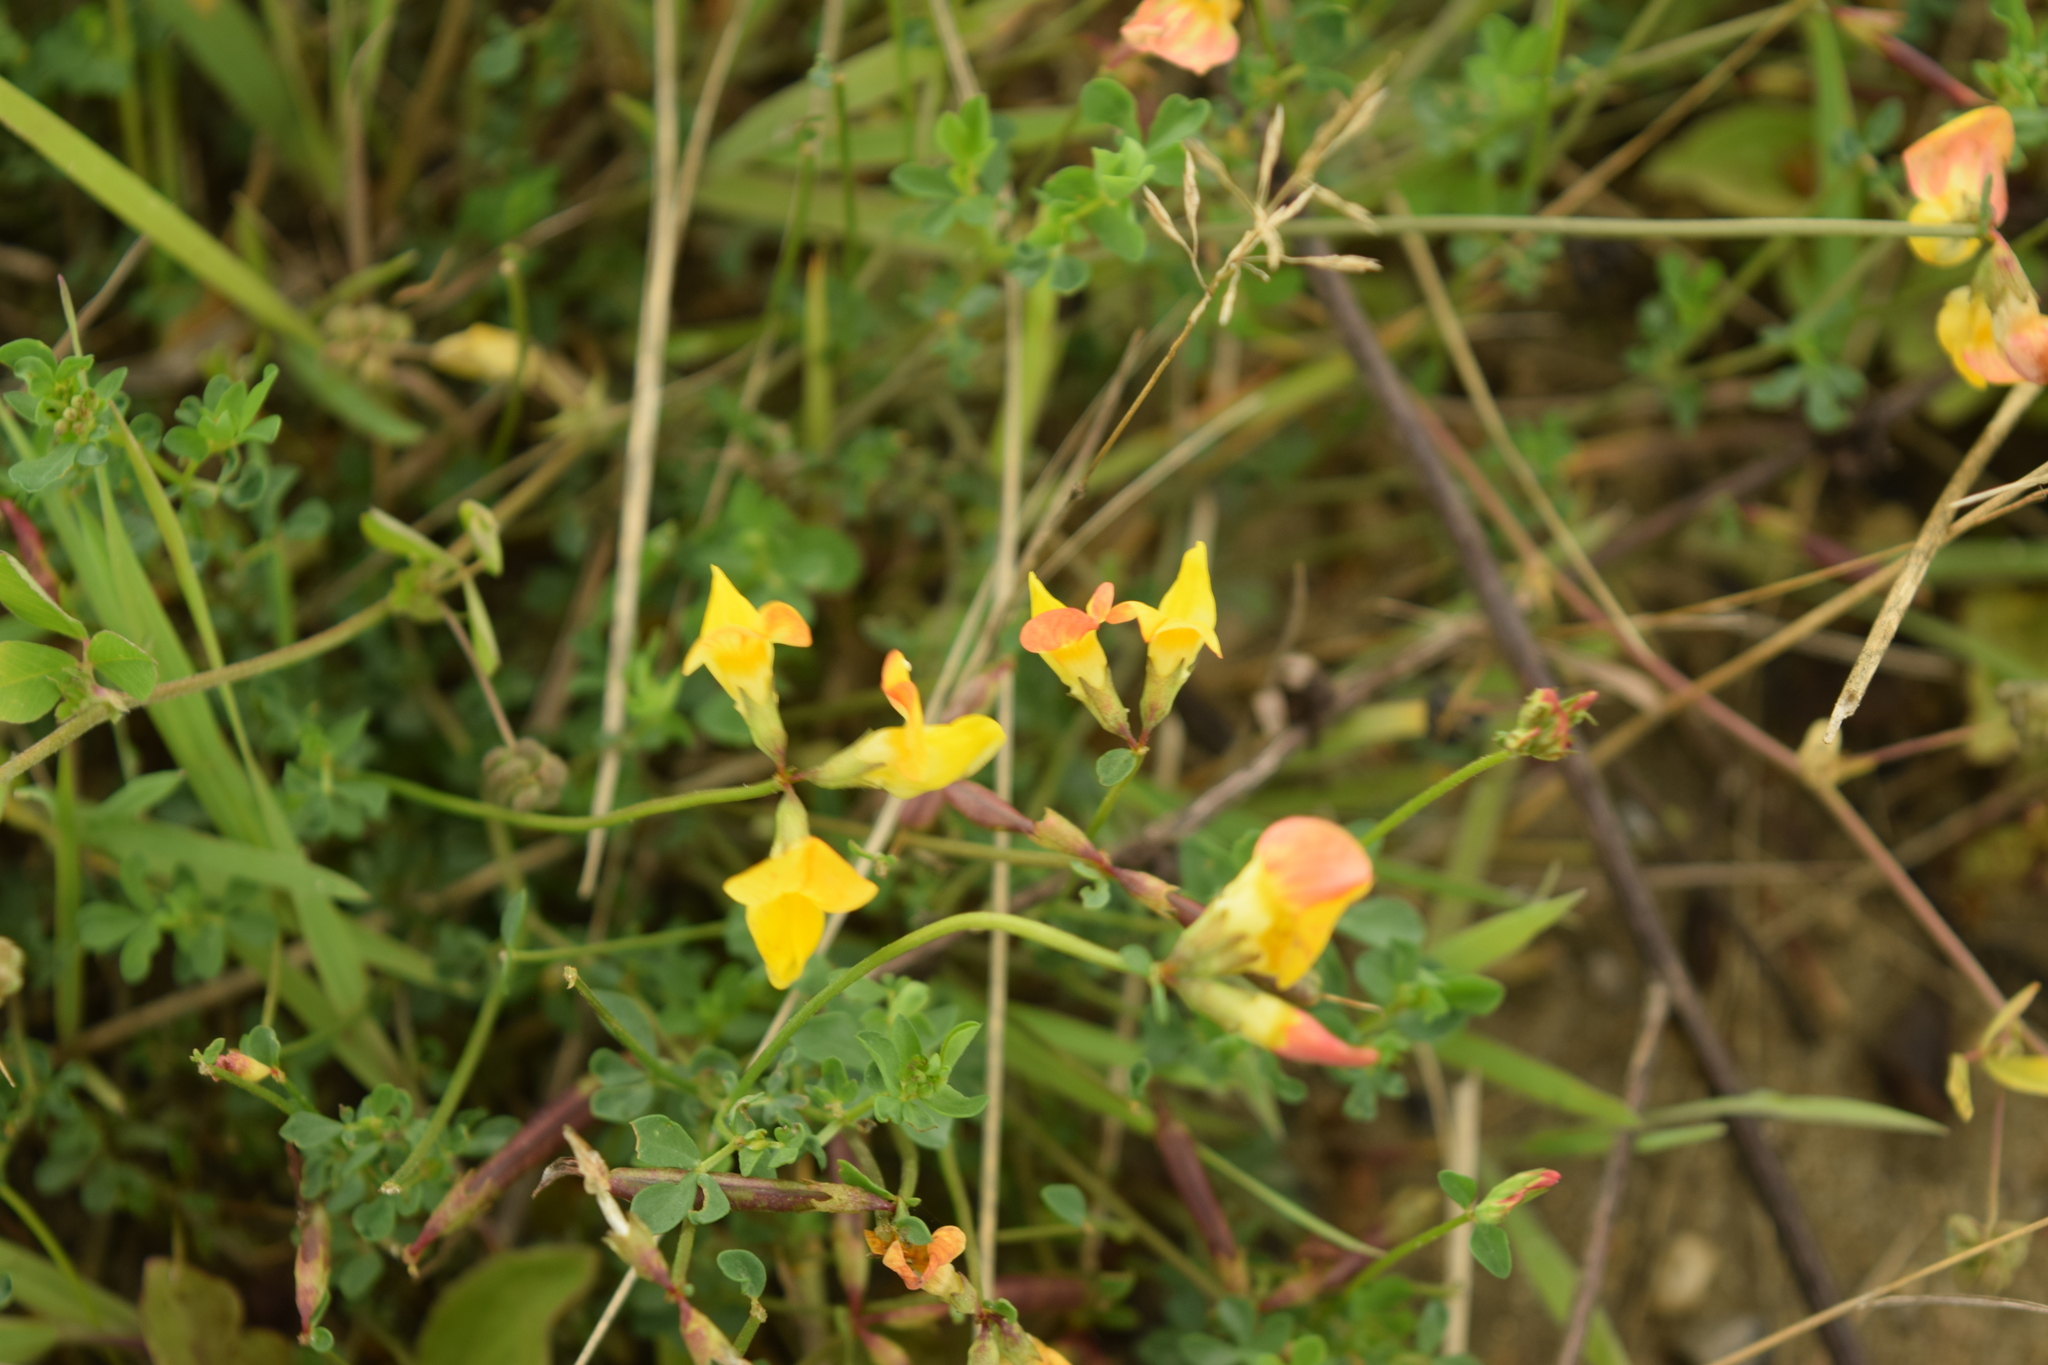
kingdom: Plantae
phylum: Tracheophyta
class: Magnoliopsida
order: Fabales
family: Fabaceae
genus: Lotus
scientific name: Lotus corniculatus
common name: Common bird's-foot-trefoil
